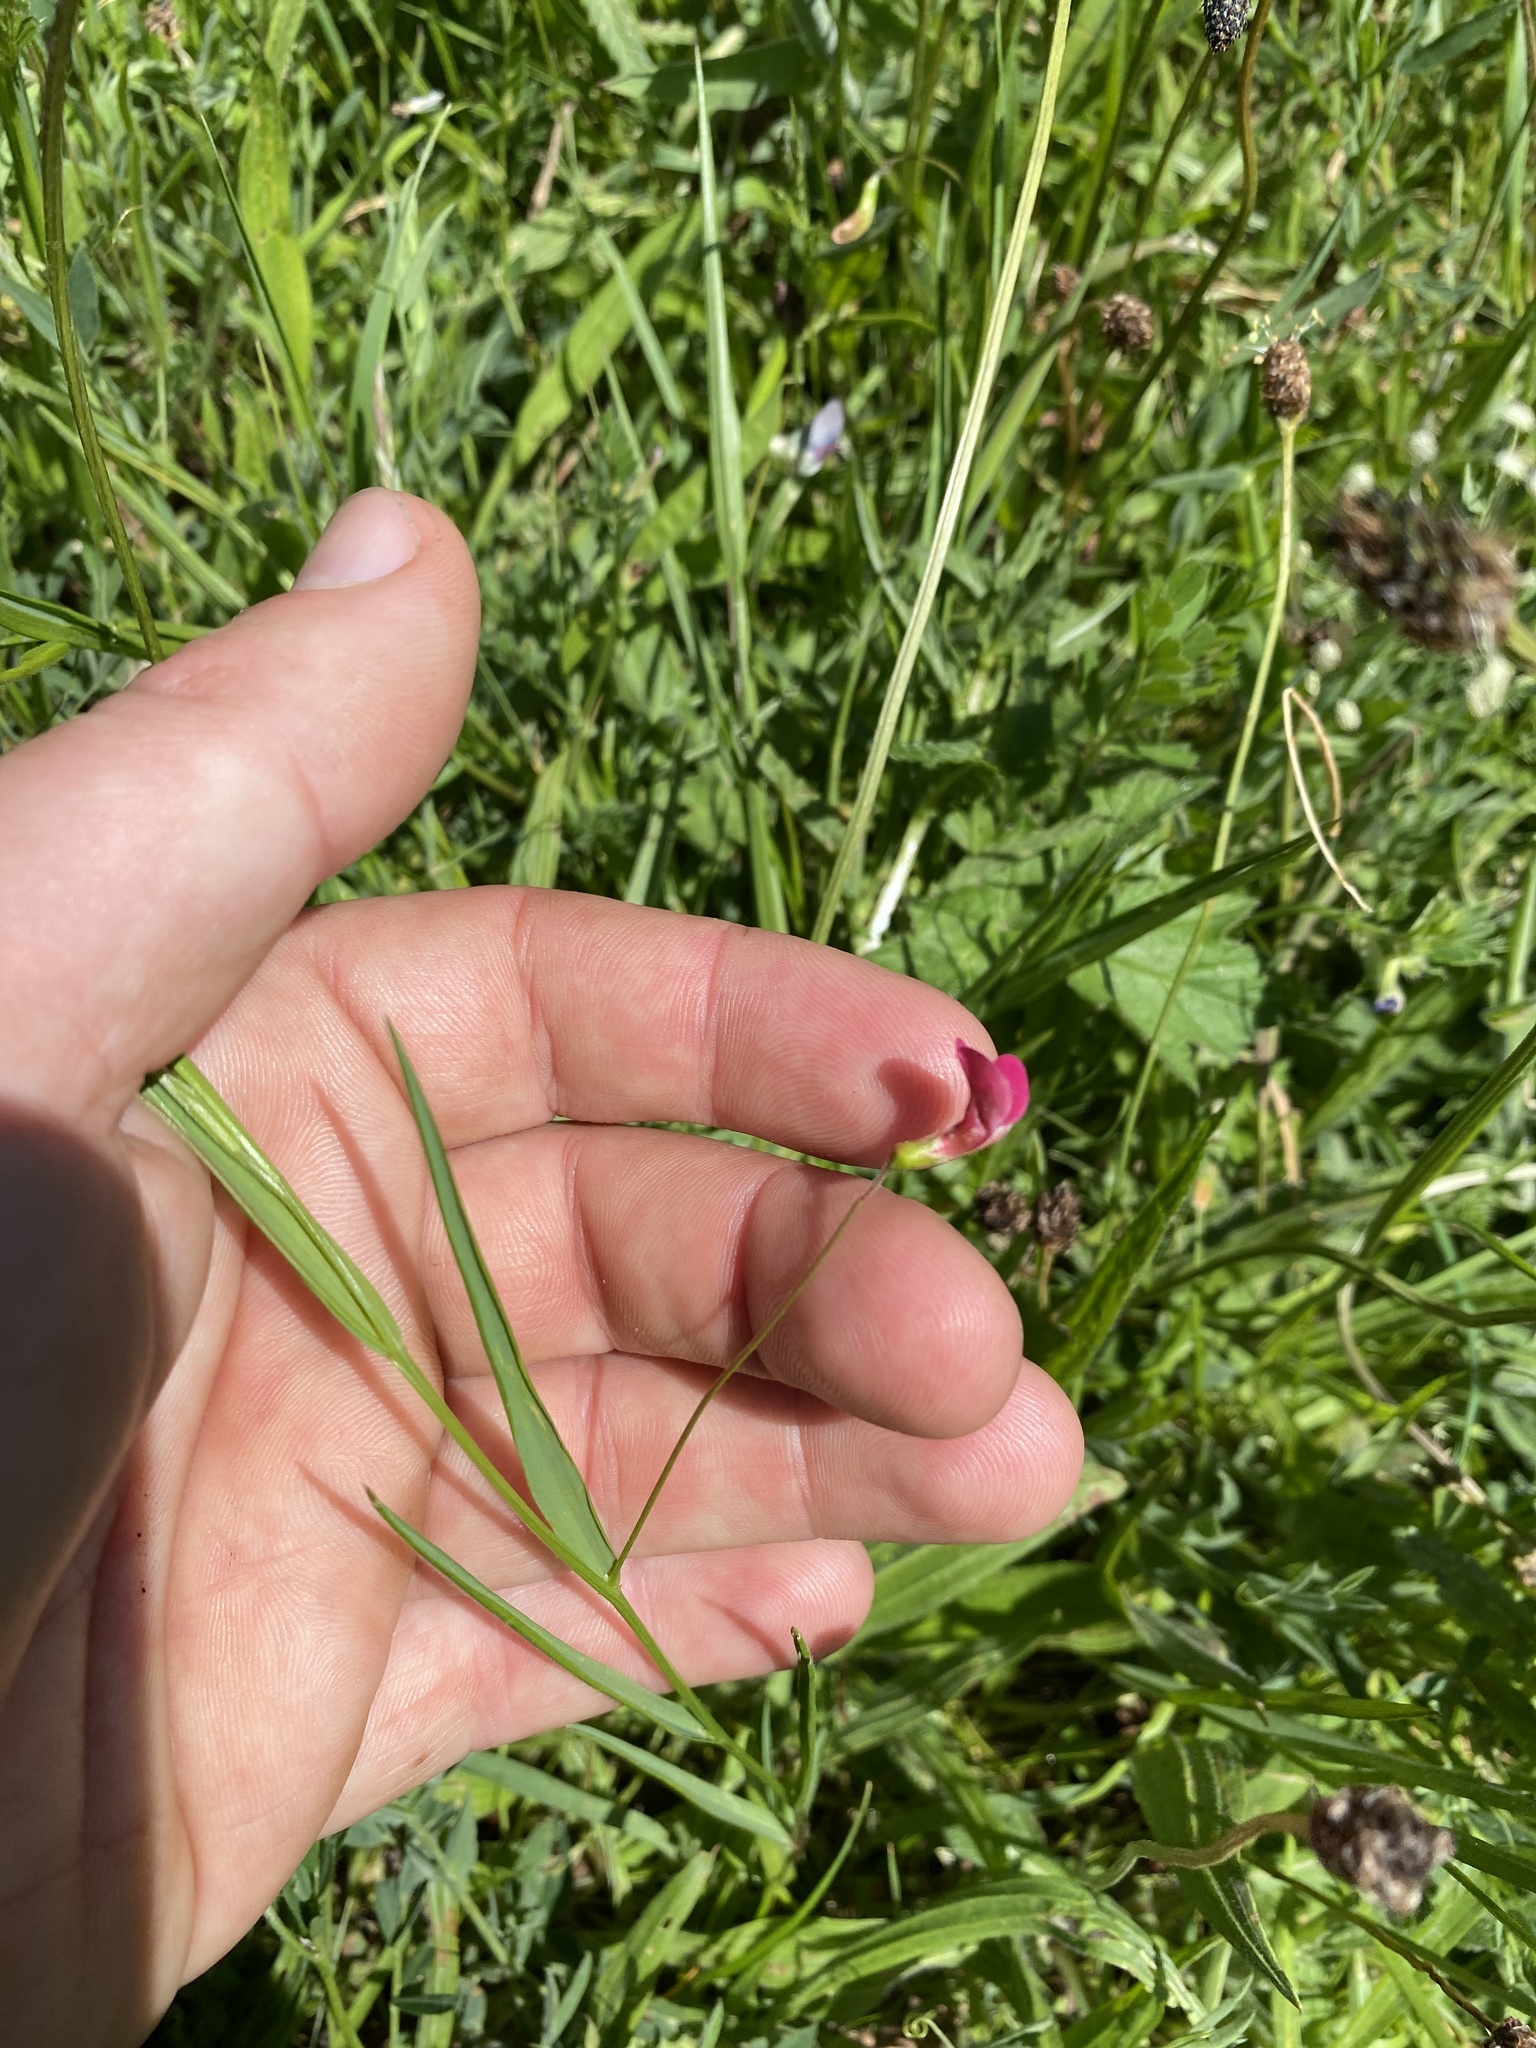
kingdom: Plantae
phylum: Tracheophyta
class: Magnoliopsida
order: Fabales
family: Fabaceae
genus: Lathyrus
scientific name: Lathyrus nissolia
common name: Grass vetchling
